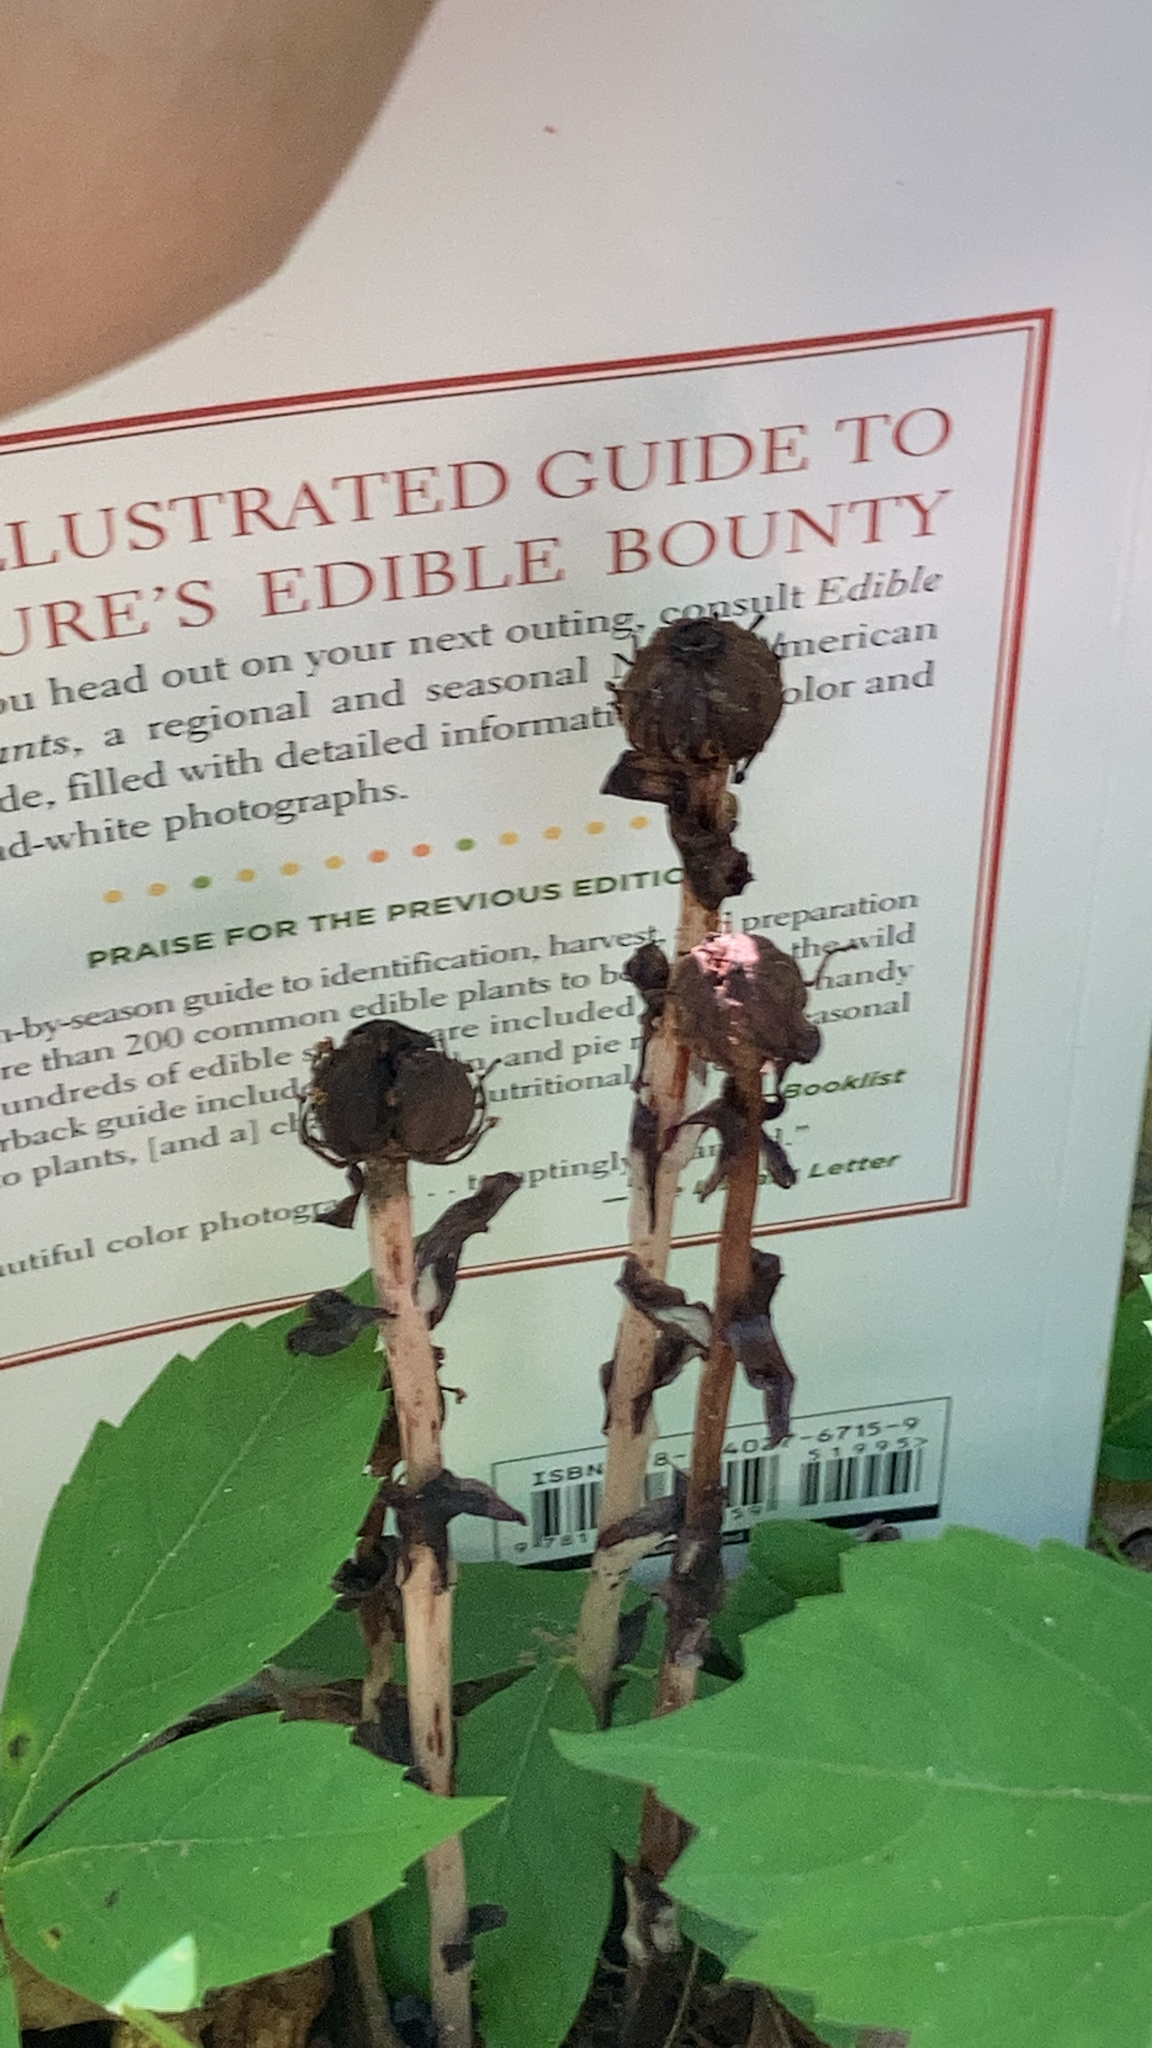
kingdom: Plantae
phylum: Tracheophyta
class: Magnoliopsida
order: Ericales
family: Ericaceae
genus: Monotropa
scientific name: Monotropa uniflora
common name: Convulsion root
